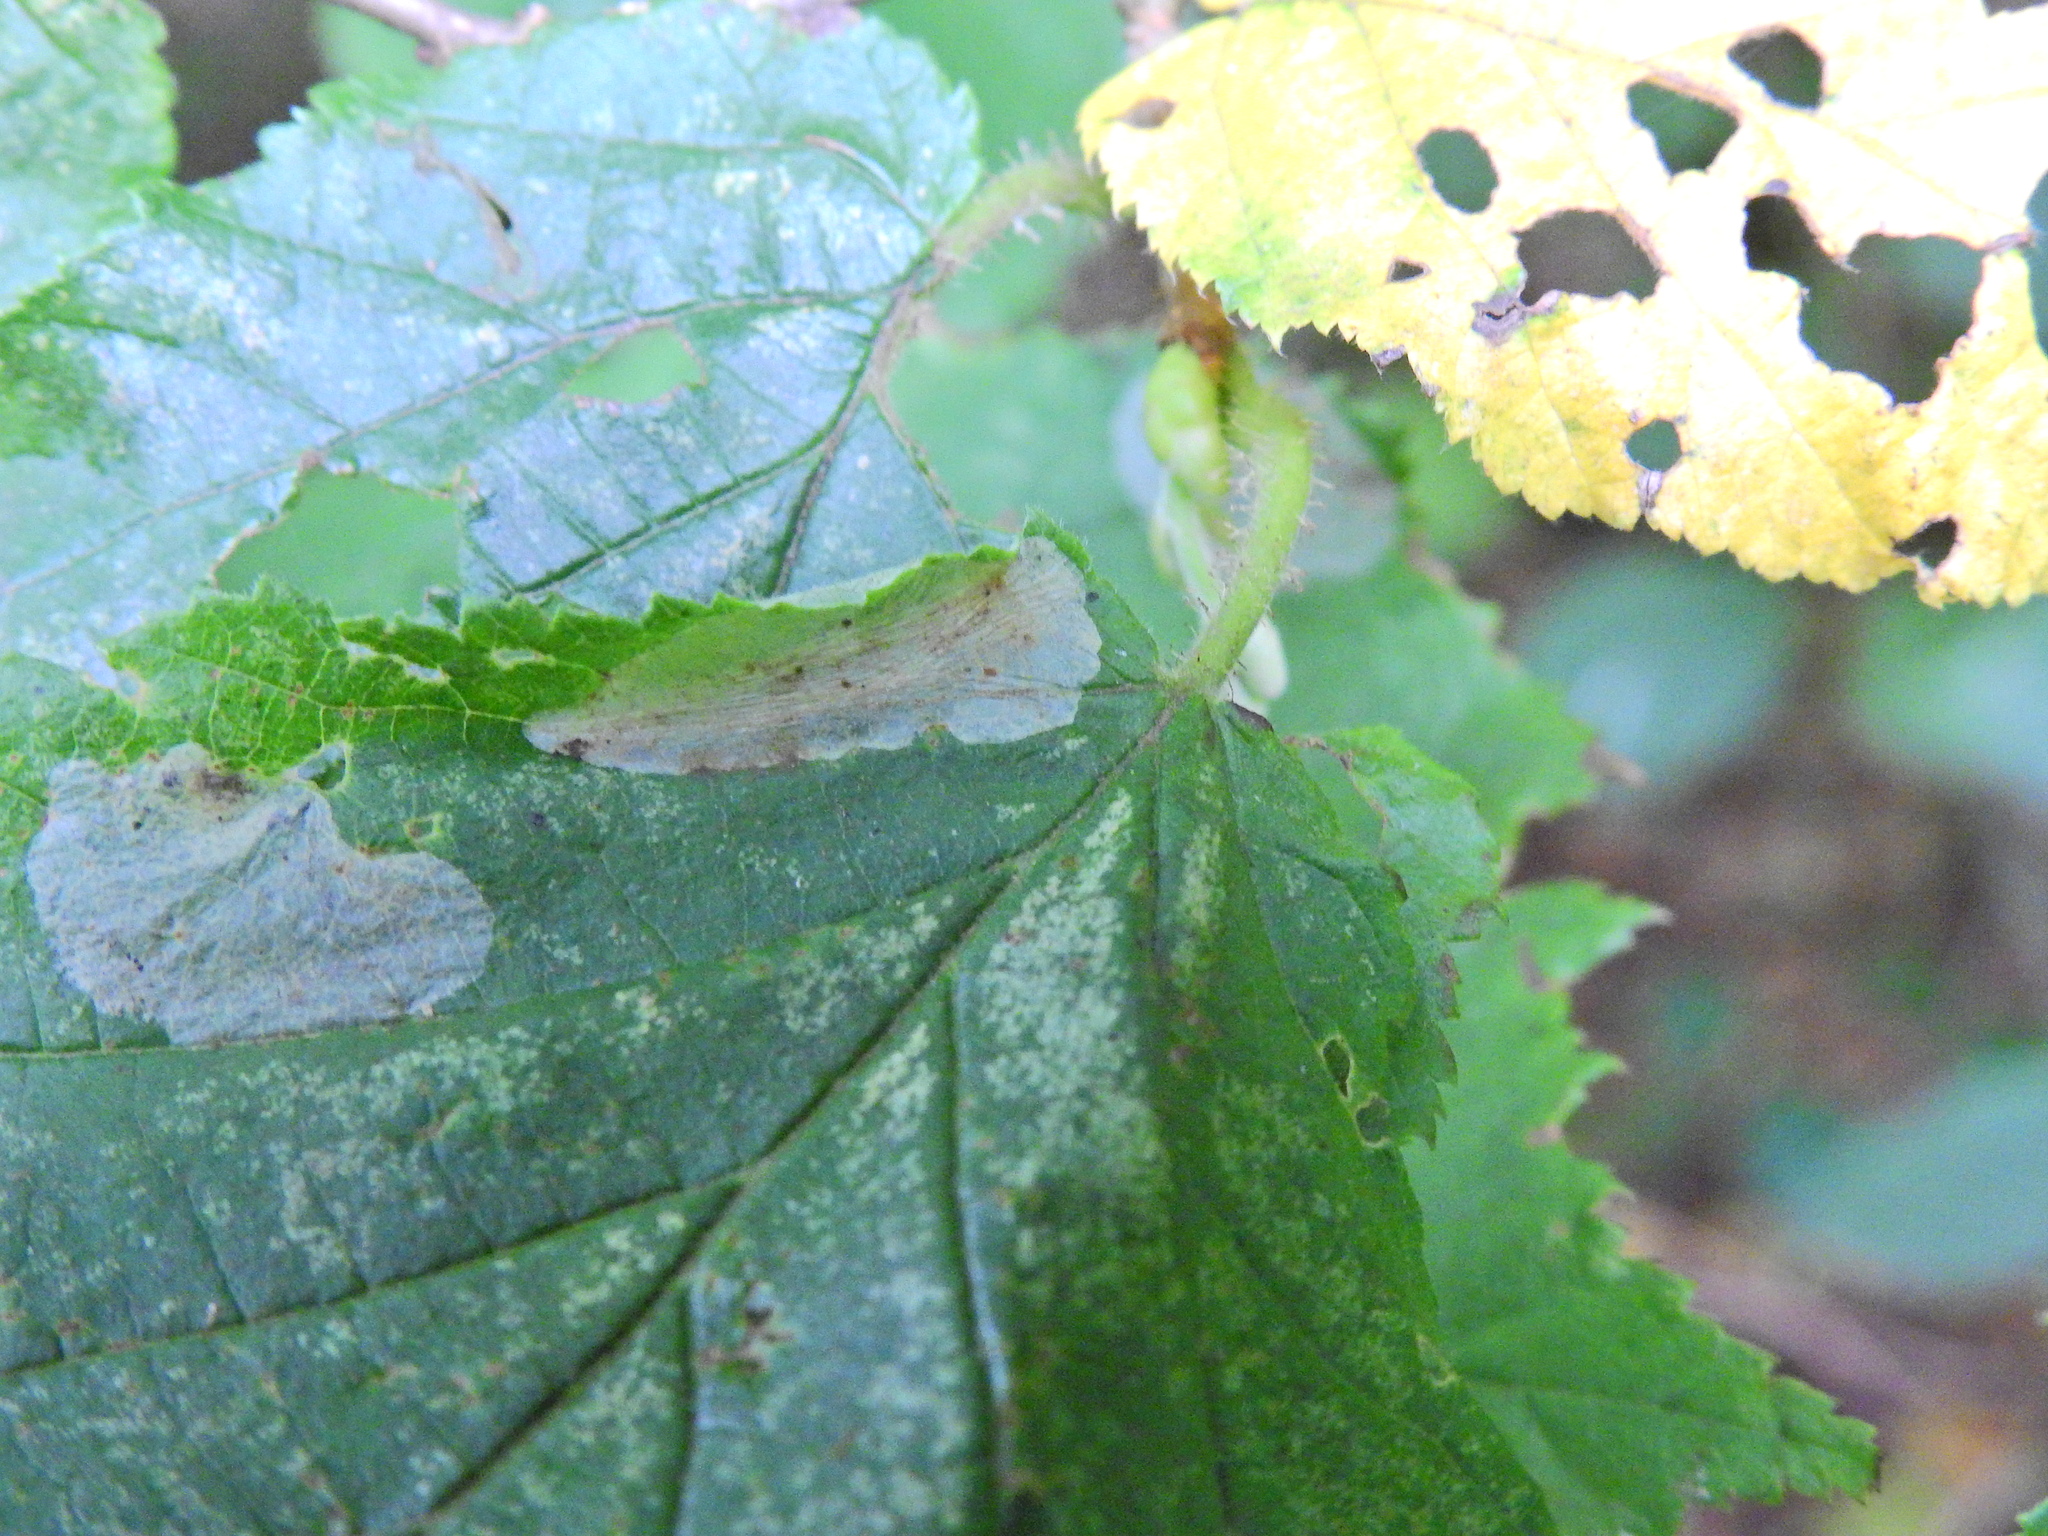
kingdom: Animalia
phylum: Arthropoda
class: Insecta
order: Lepidoptera
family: Gracillariidae
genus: Phyllonorycter
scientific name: Phyllonorycter coryli
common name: Nut-leaf blister moth
